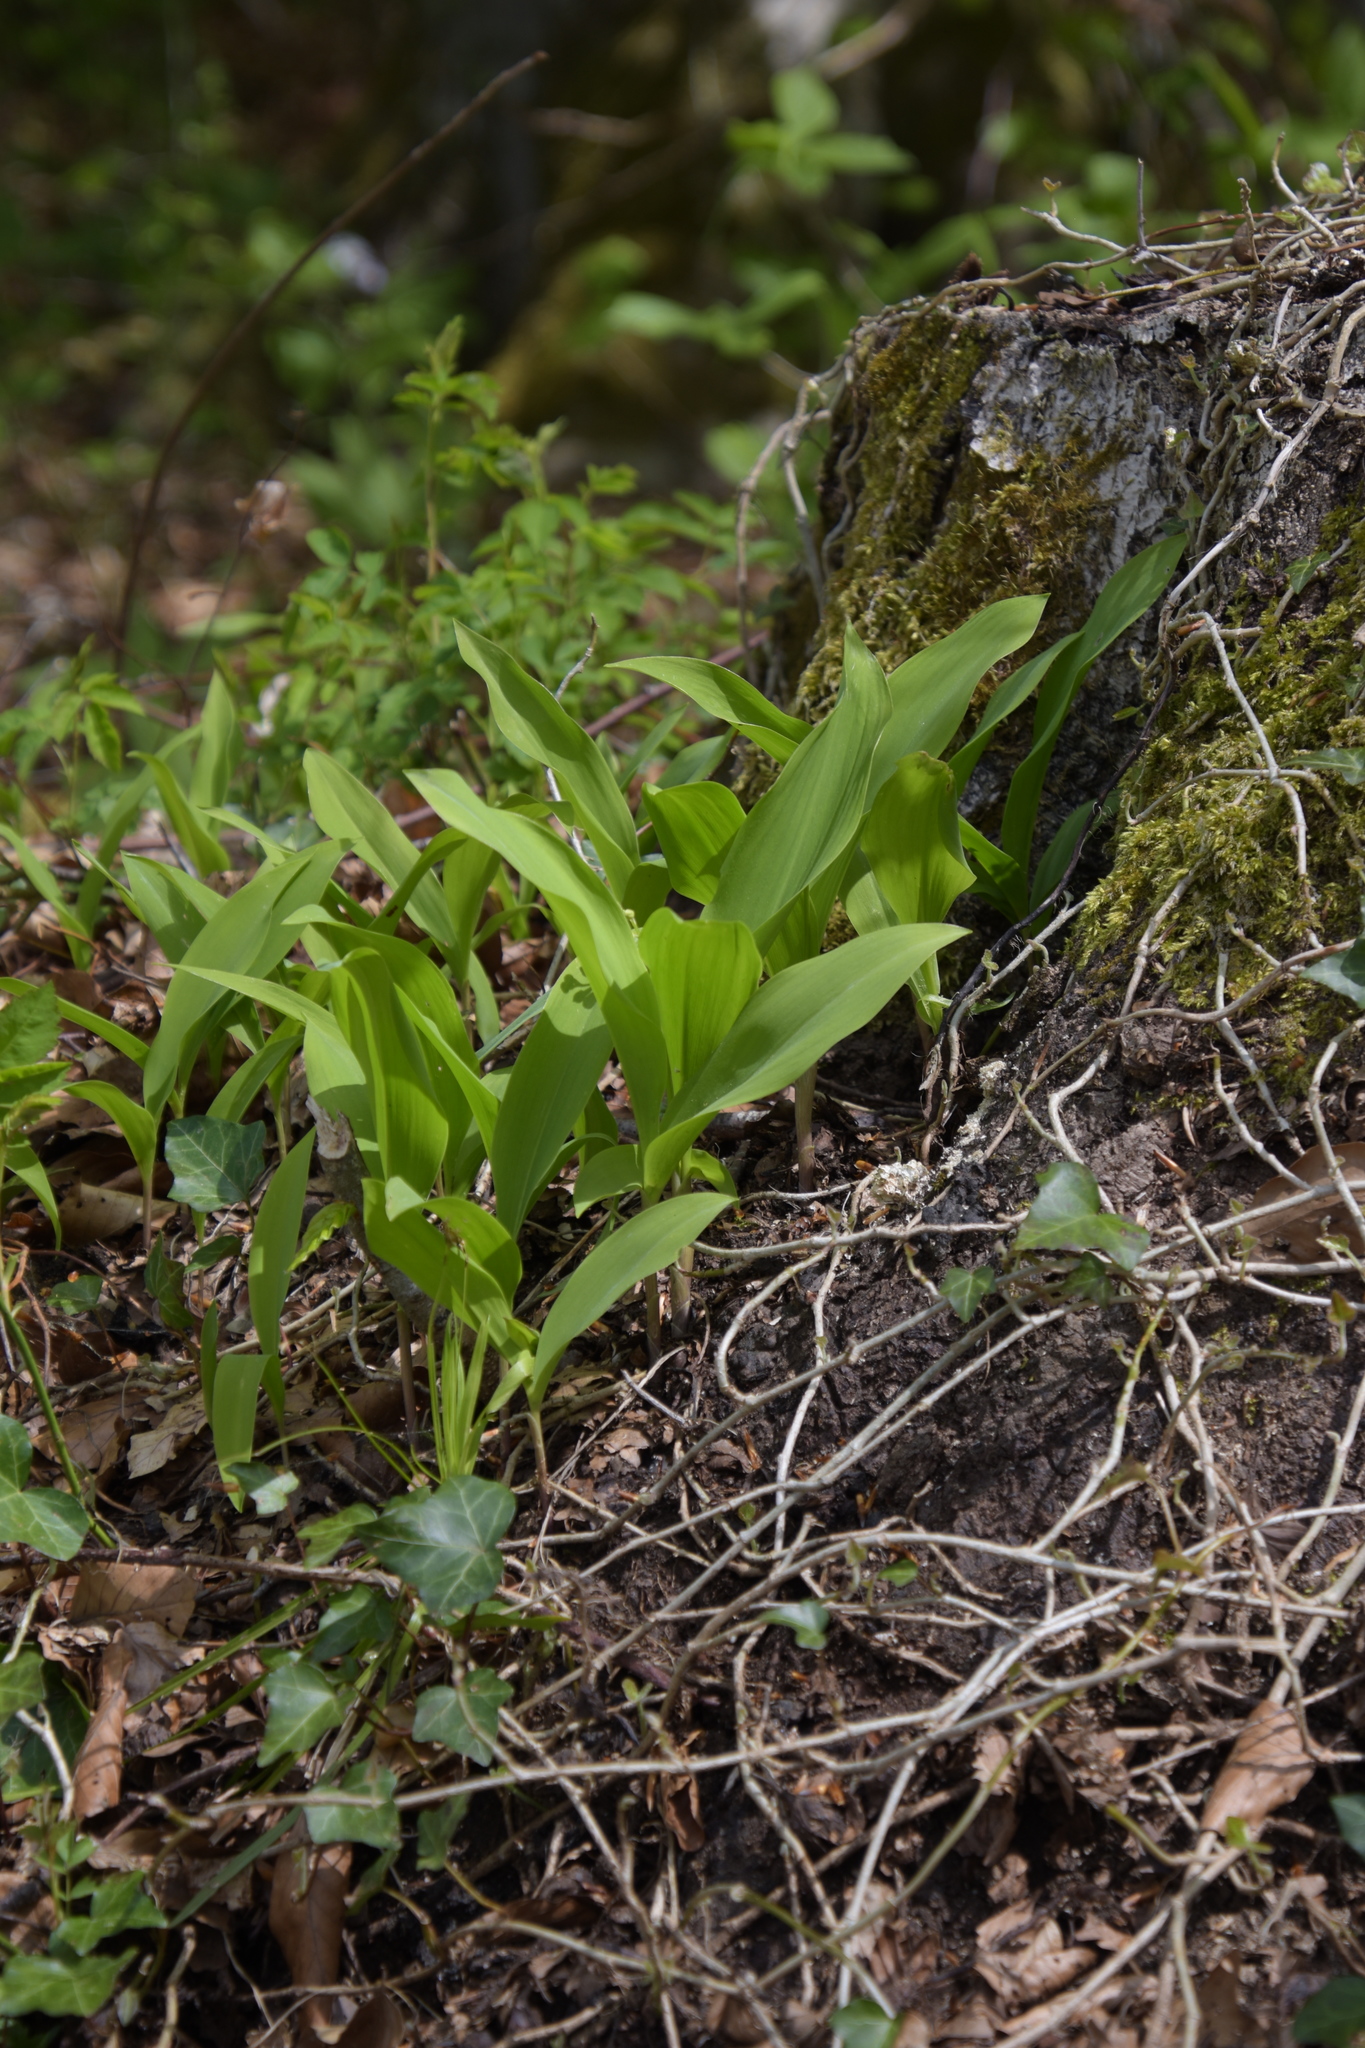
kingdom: Plantae
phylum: Tracheophyta
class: Liliopsida
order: Asparagales
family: Asparagaceae
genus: Convallaria
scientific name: Convallaria majalis
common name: Lily-of-the-valley
